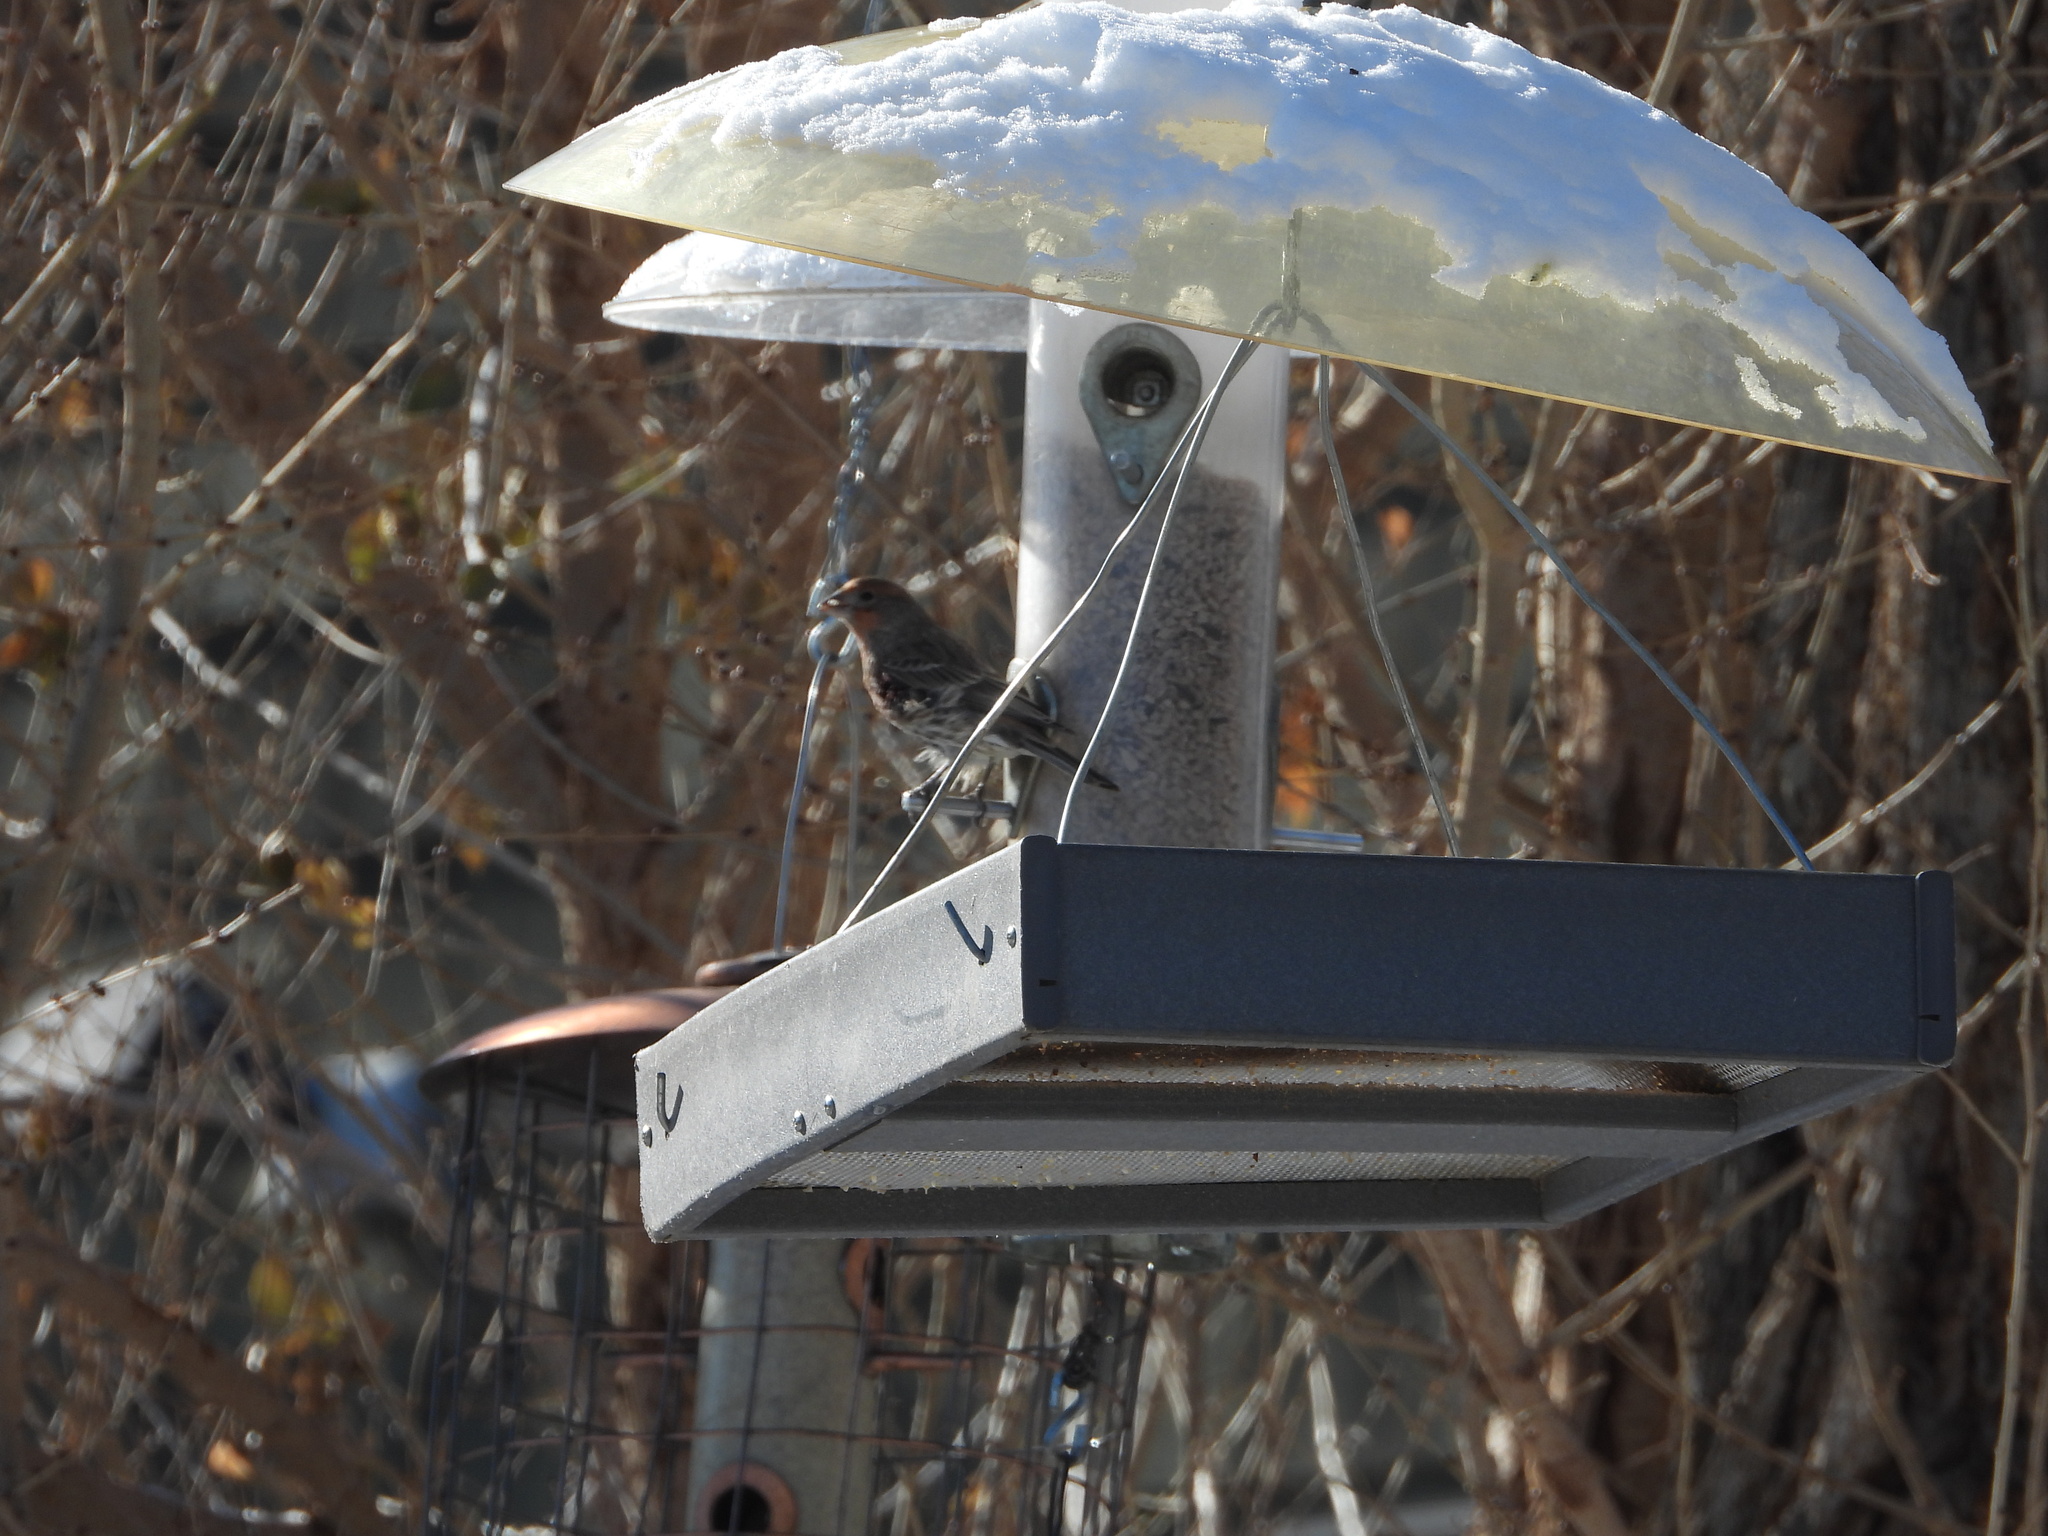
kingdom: Animalia
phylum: Chordata
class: Aves
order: Passeriformes
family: Fringillidae
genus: Haemorhous
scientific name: Haemorhous mexicanus
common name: House finch
